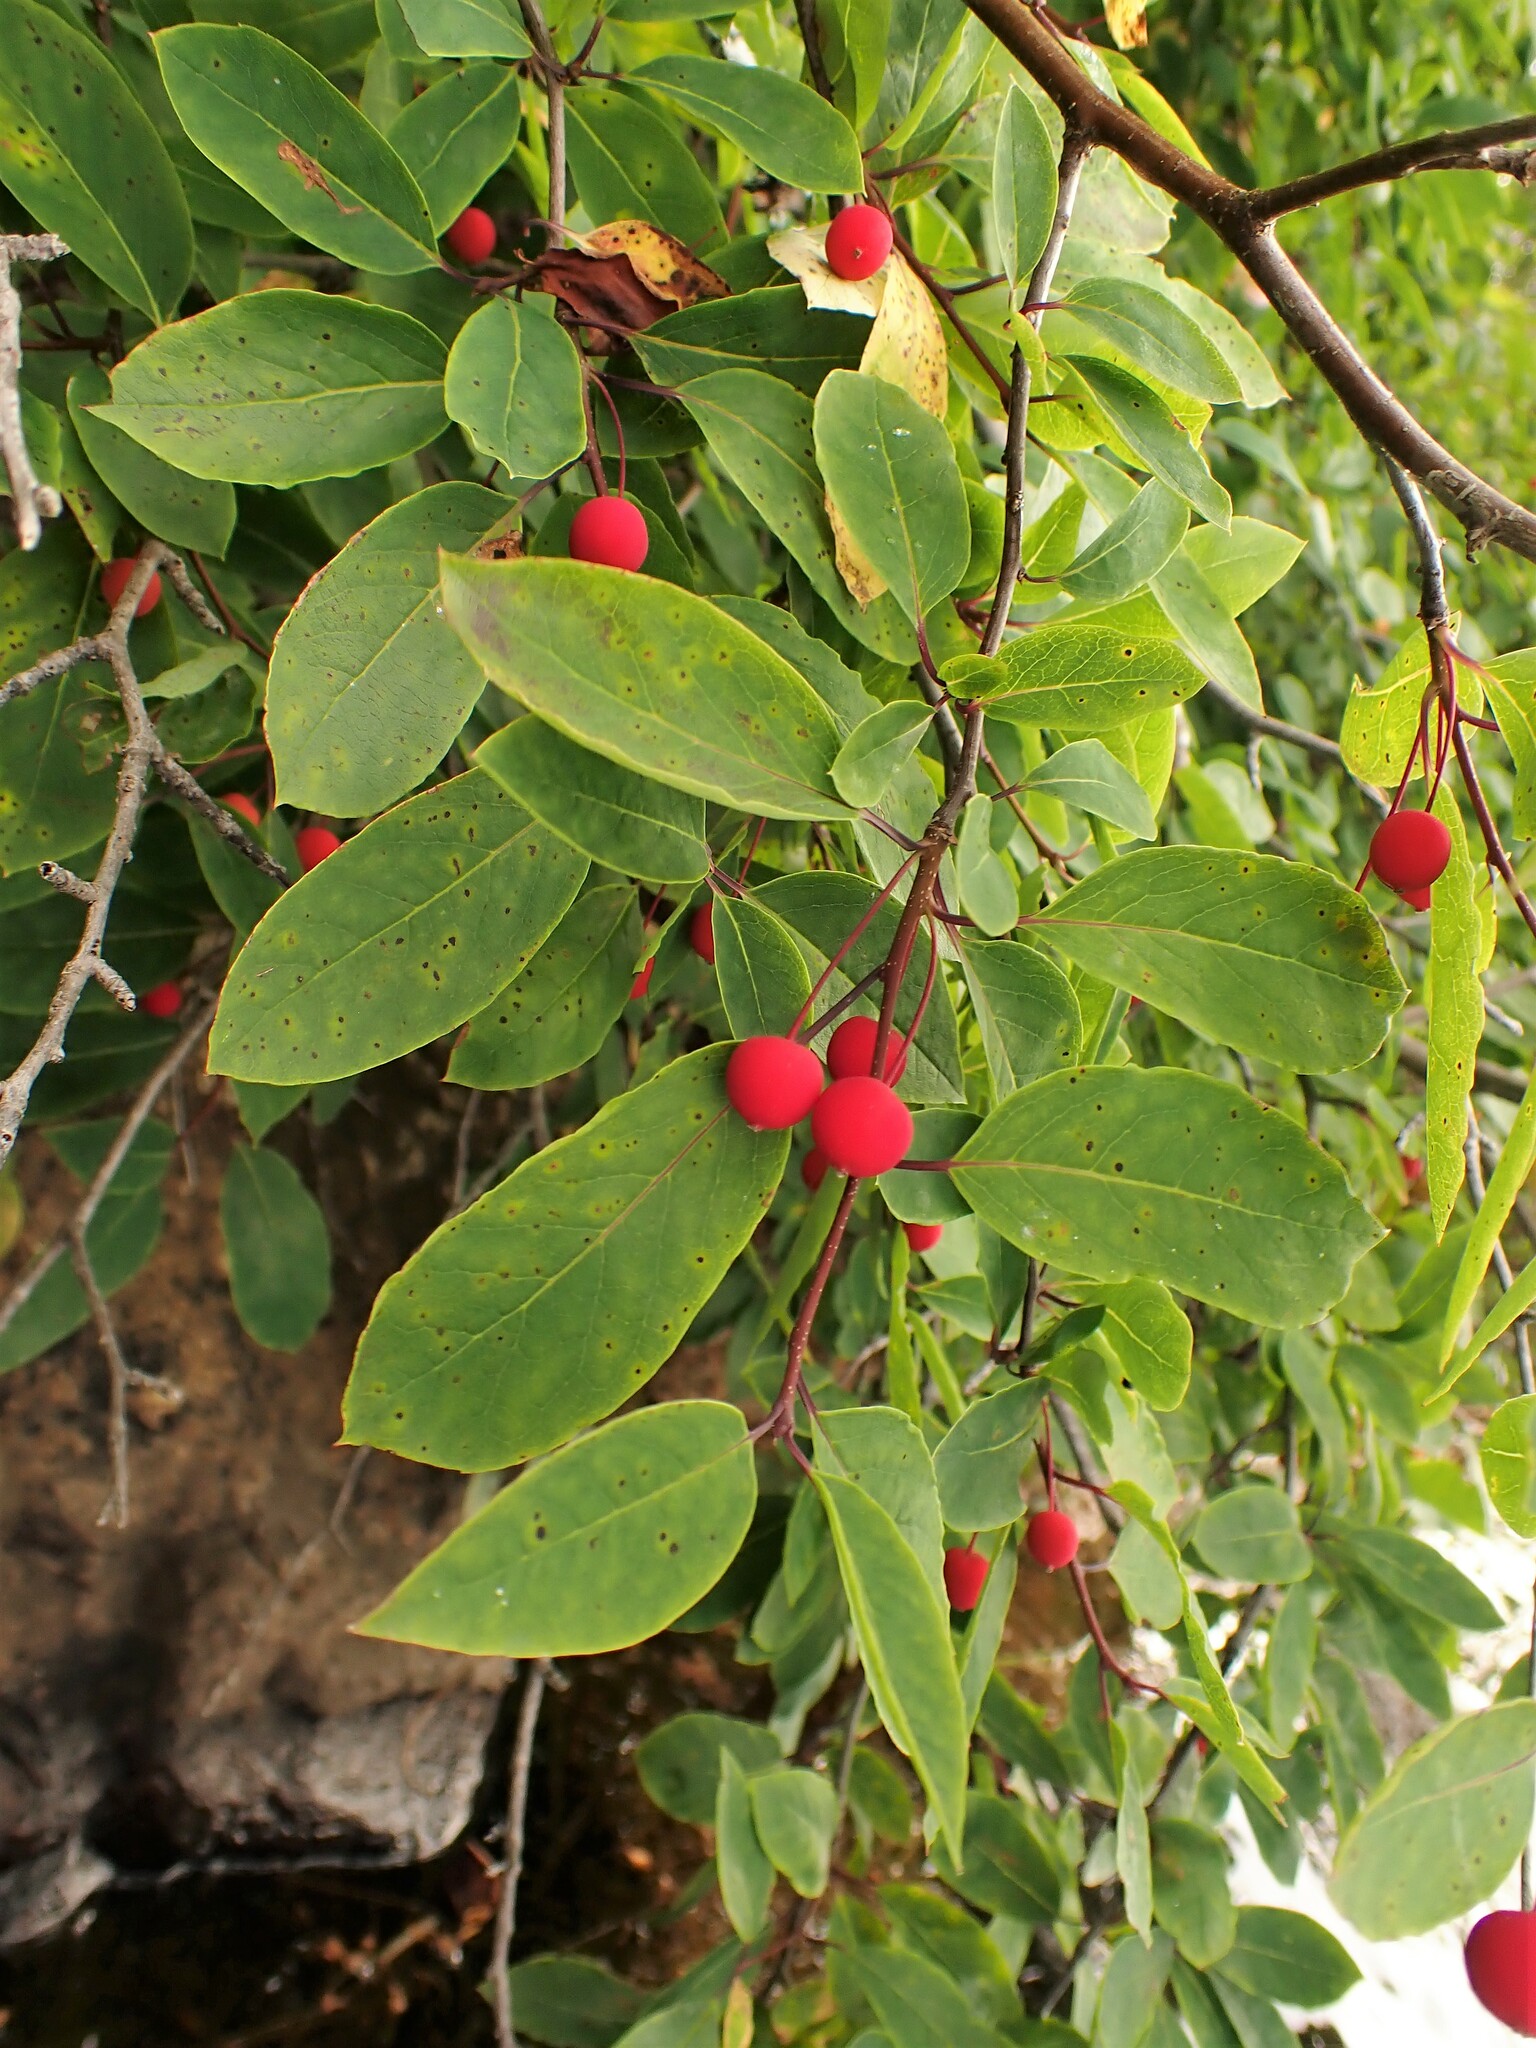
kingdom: Plantae
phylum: Tracheophyta
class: Magnoliopsida
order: Aquifoliales
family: Aquifoliaceae
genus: Ilex
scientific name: Ilex mucronata
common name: Catberry
